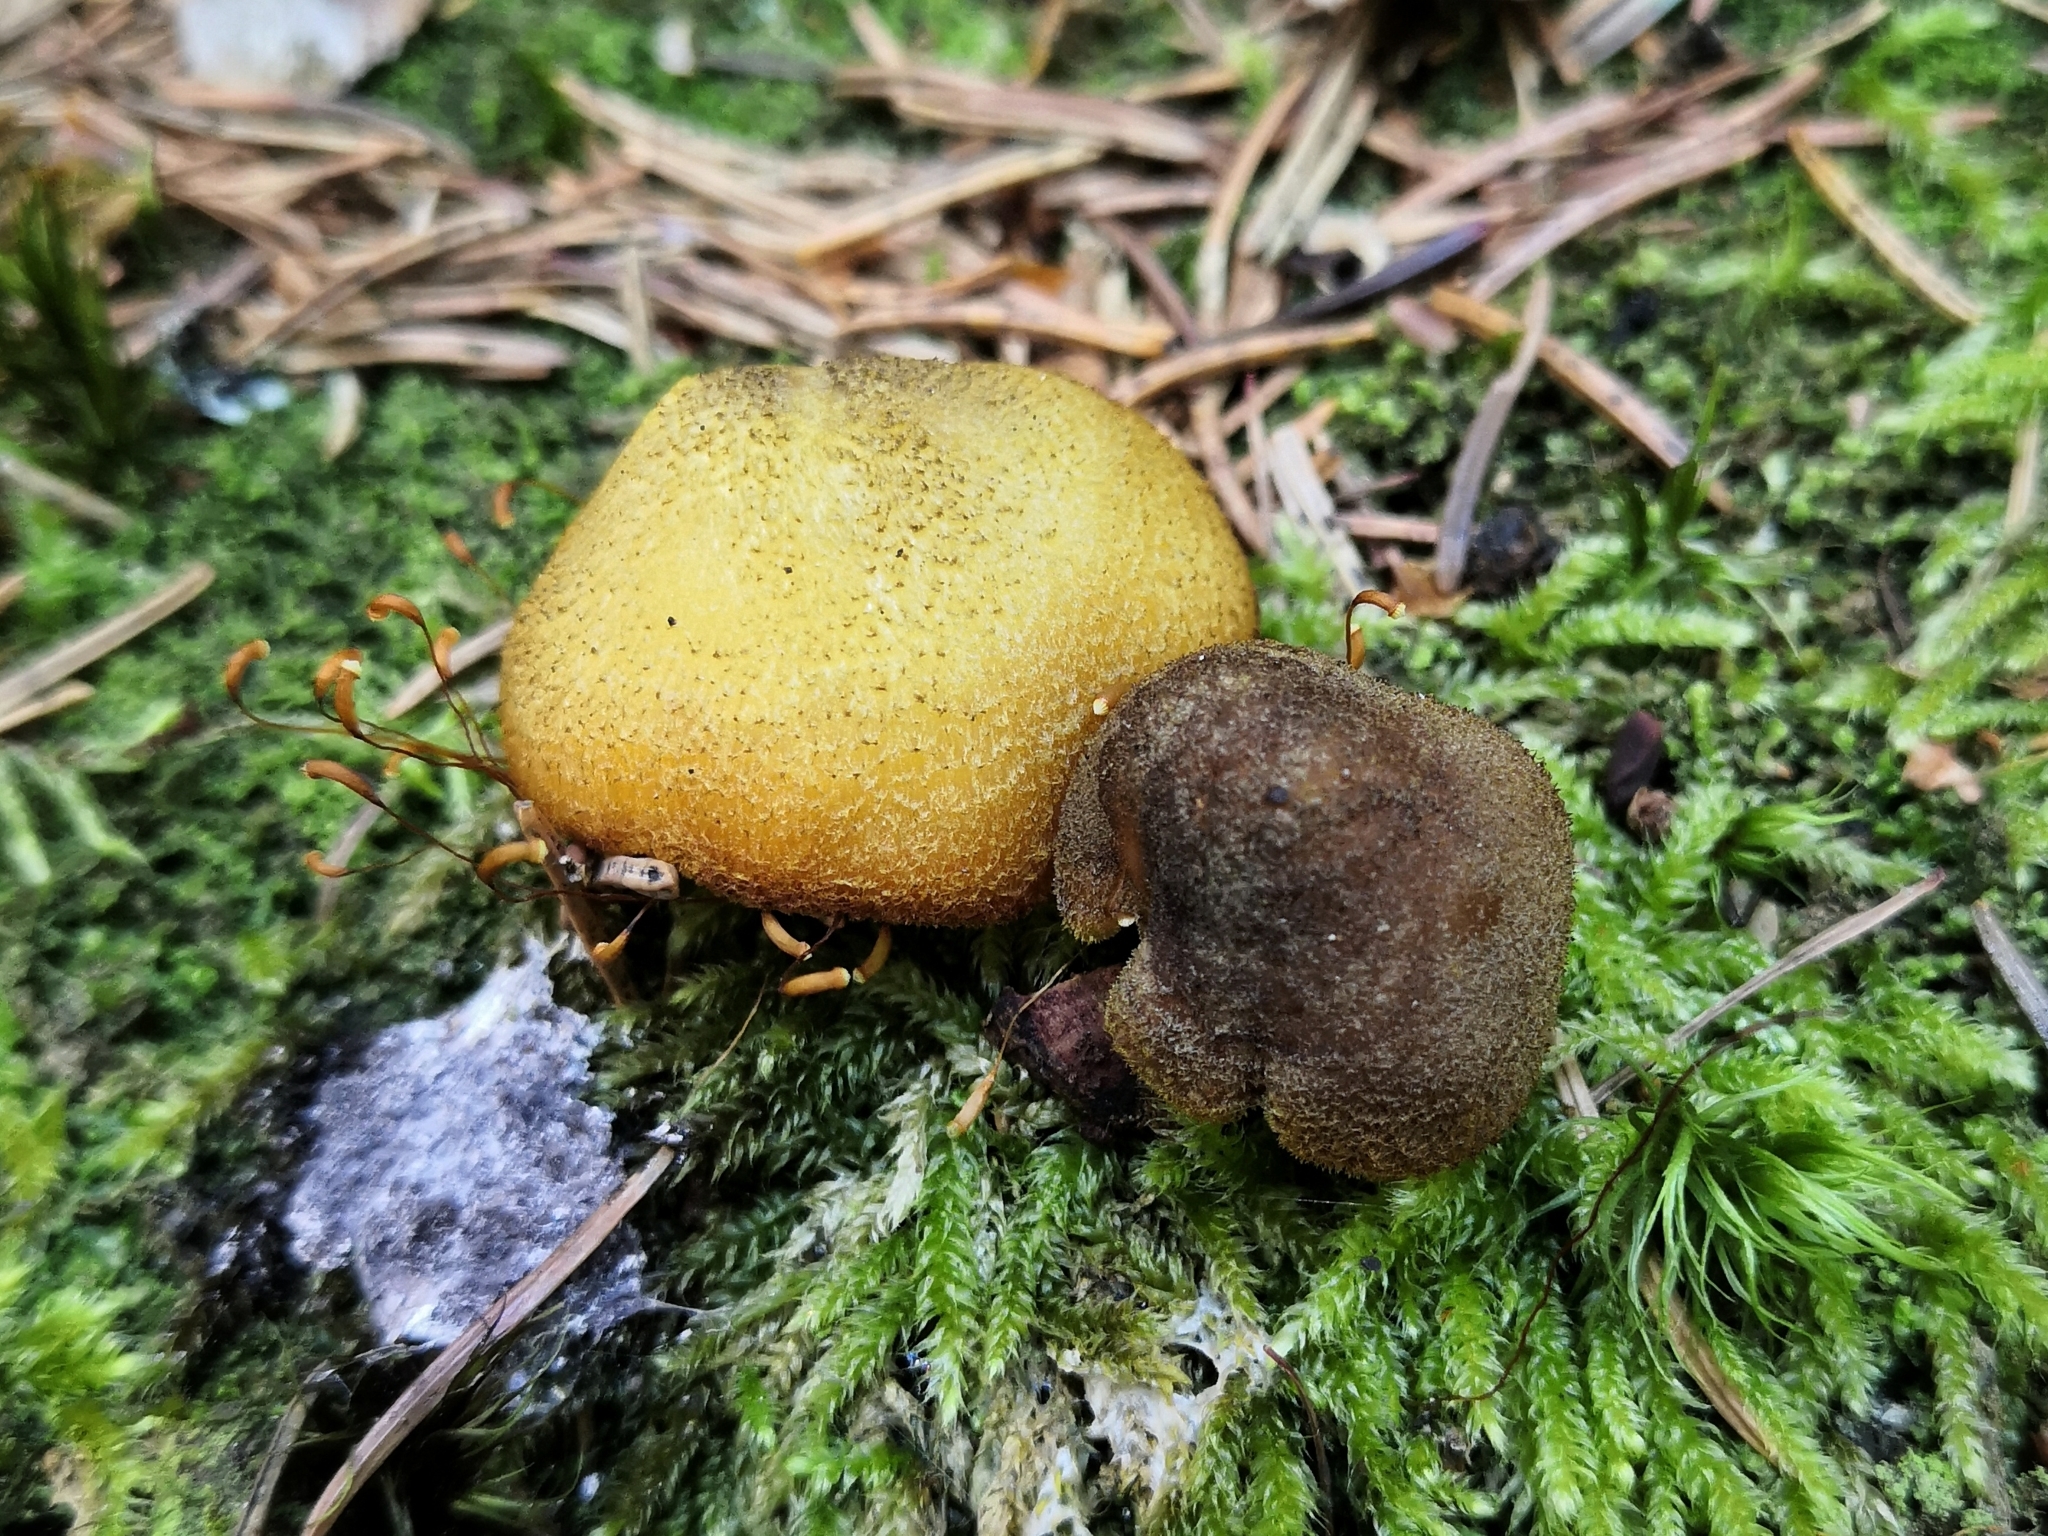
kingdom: Fungi
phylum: Basidiomycota
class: Agaricomycetes
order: Agaricales
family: Tricholomataceae
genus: Tricholomopsis
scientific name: Tricholomopsis decora
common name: Prunes and custard
